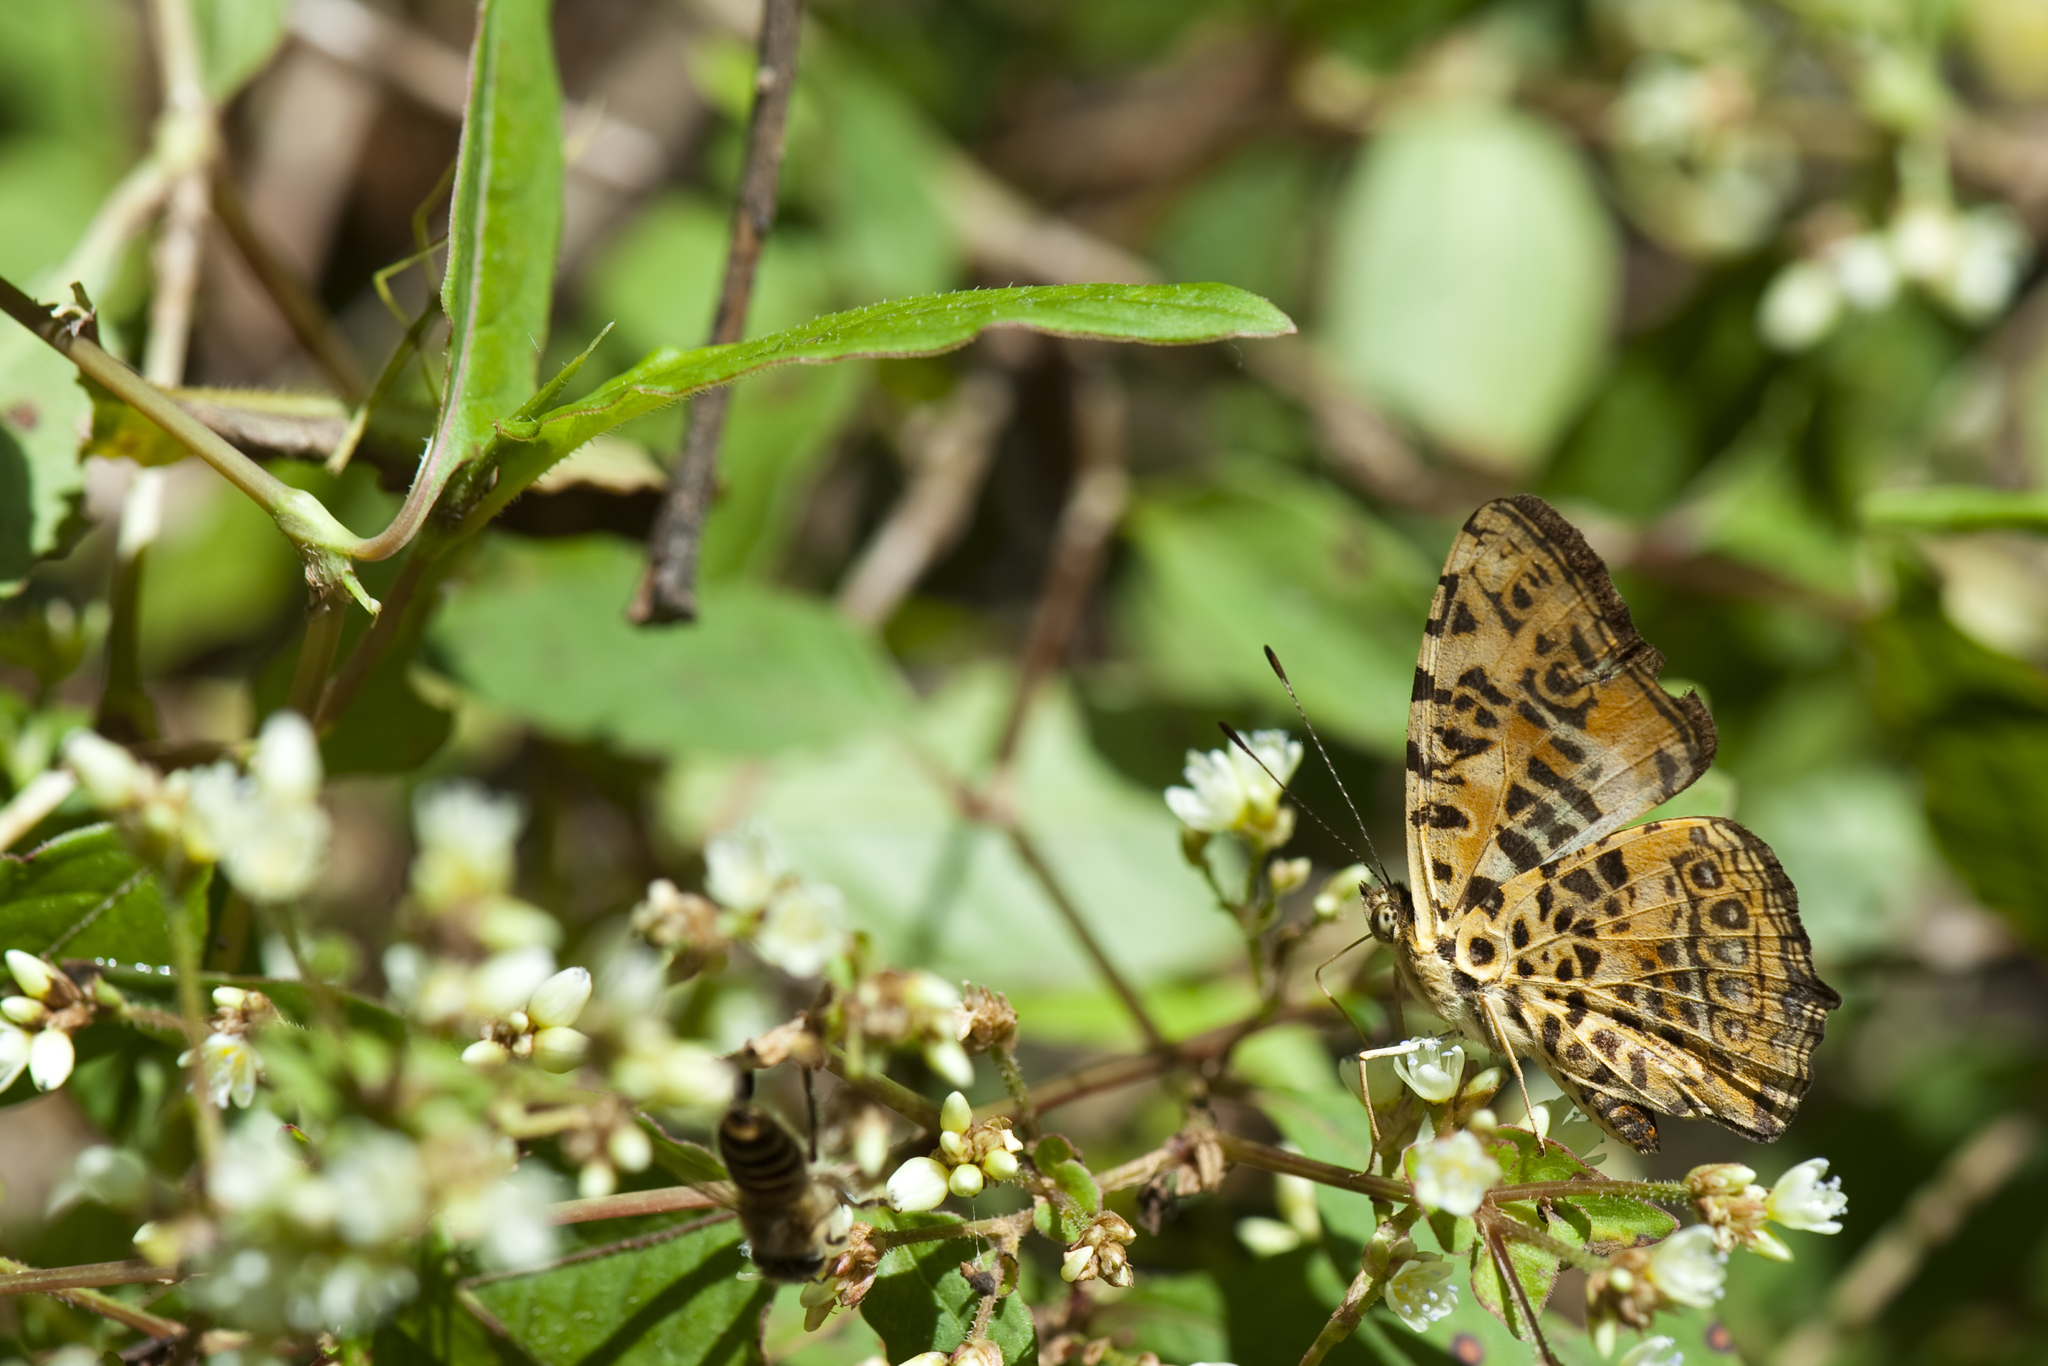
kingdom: Animalia
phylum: Arthropoda
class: Insecta
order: Lepidoptera
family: Nymphalidae
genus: Symbrenthia
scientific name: Symbrenthia brabira
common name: Yellow jester
